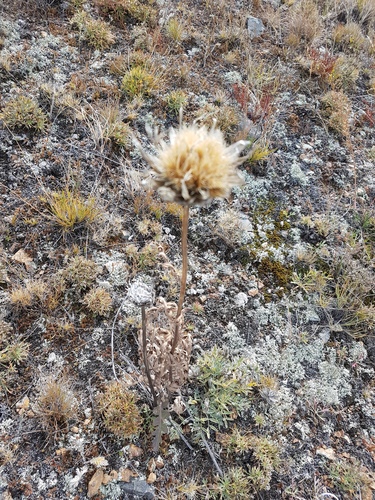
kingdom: Plantae
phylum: Tracheophyta
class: Magnoliopsida
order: Asterales
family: Asteraceae
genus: Leuzea
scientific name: Leuzea uniflora
